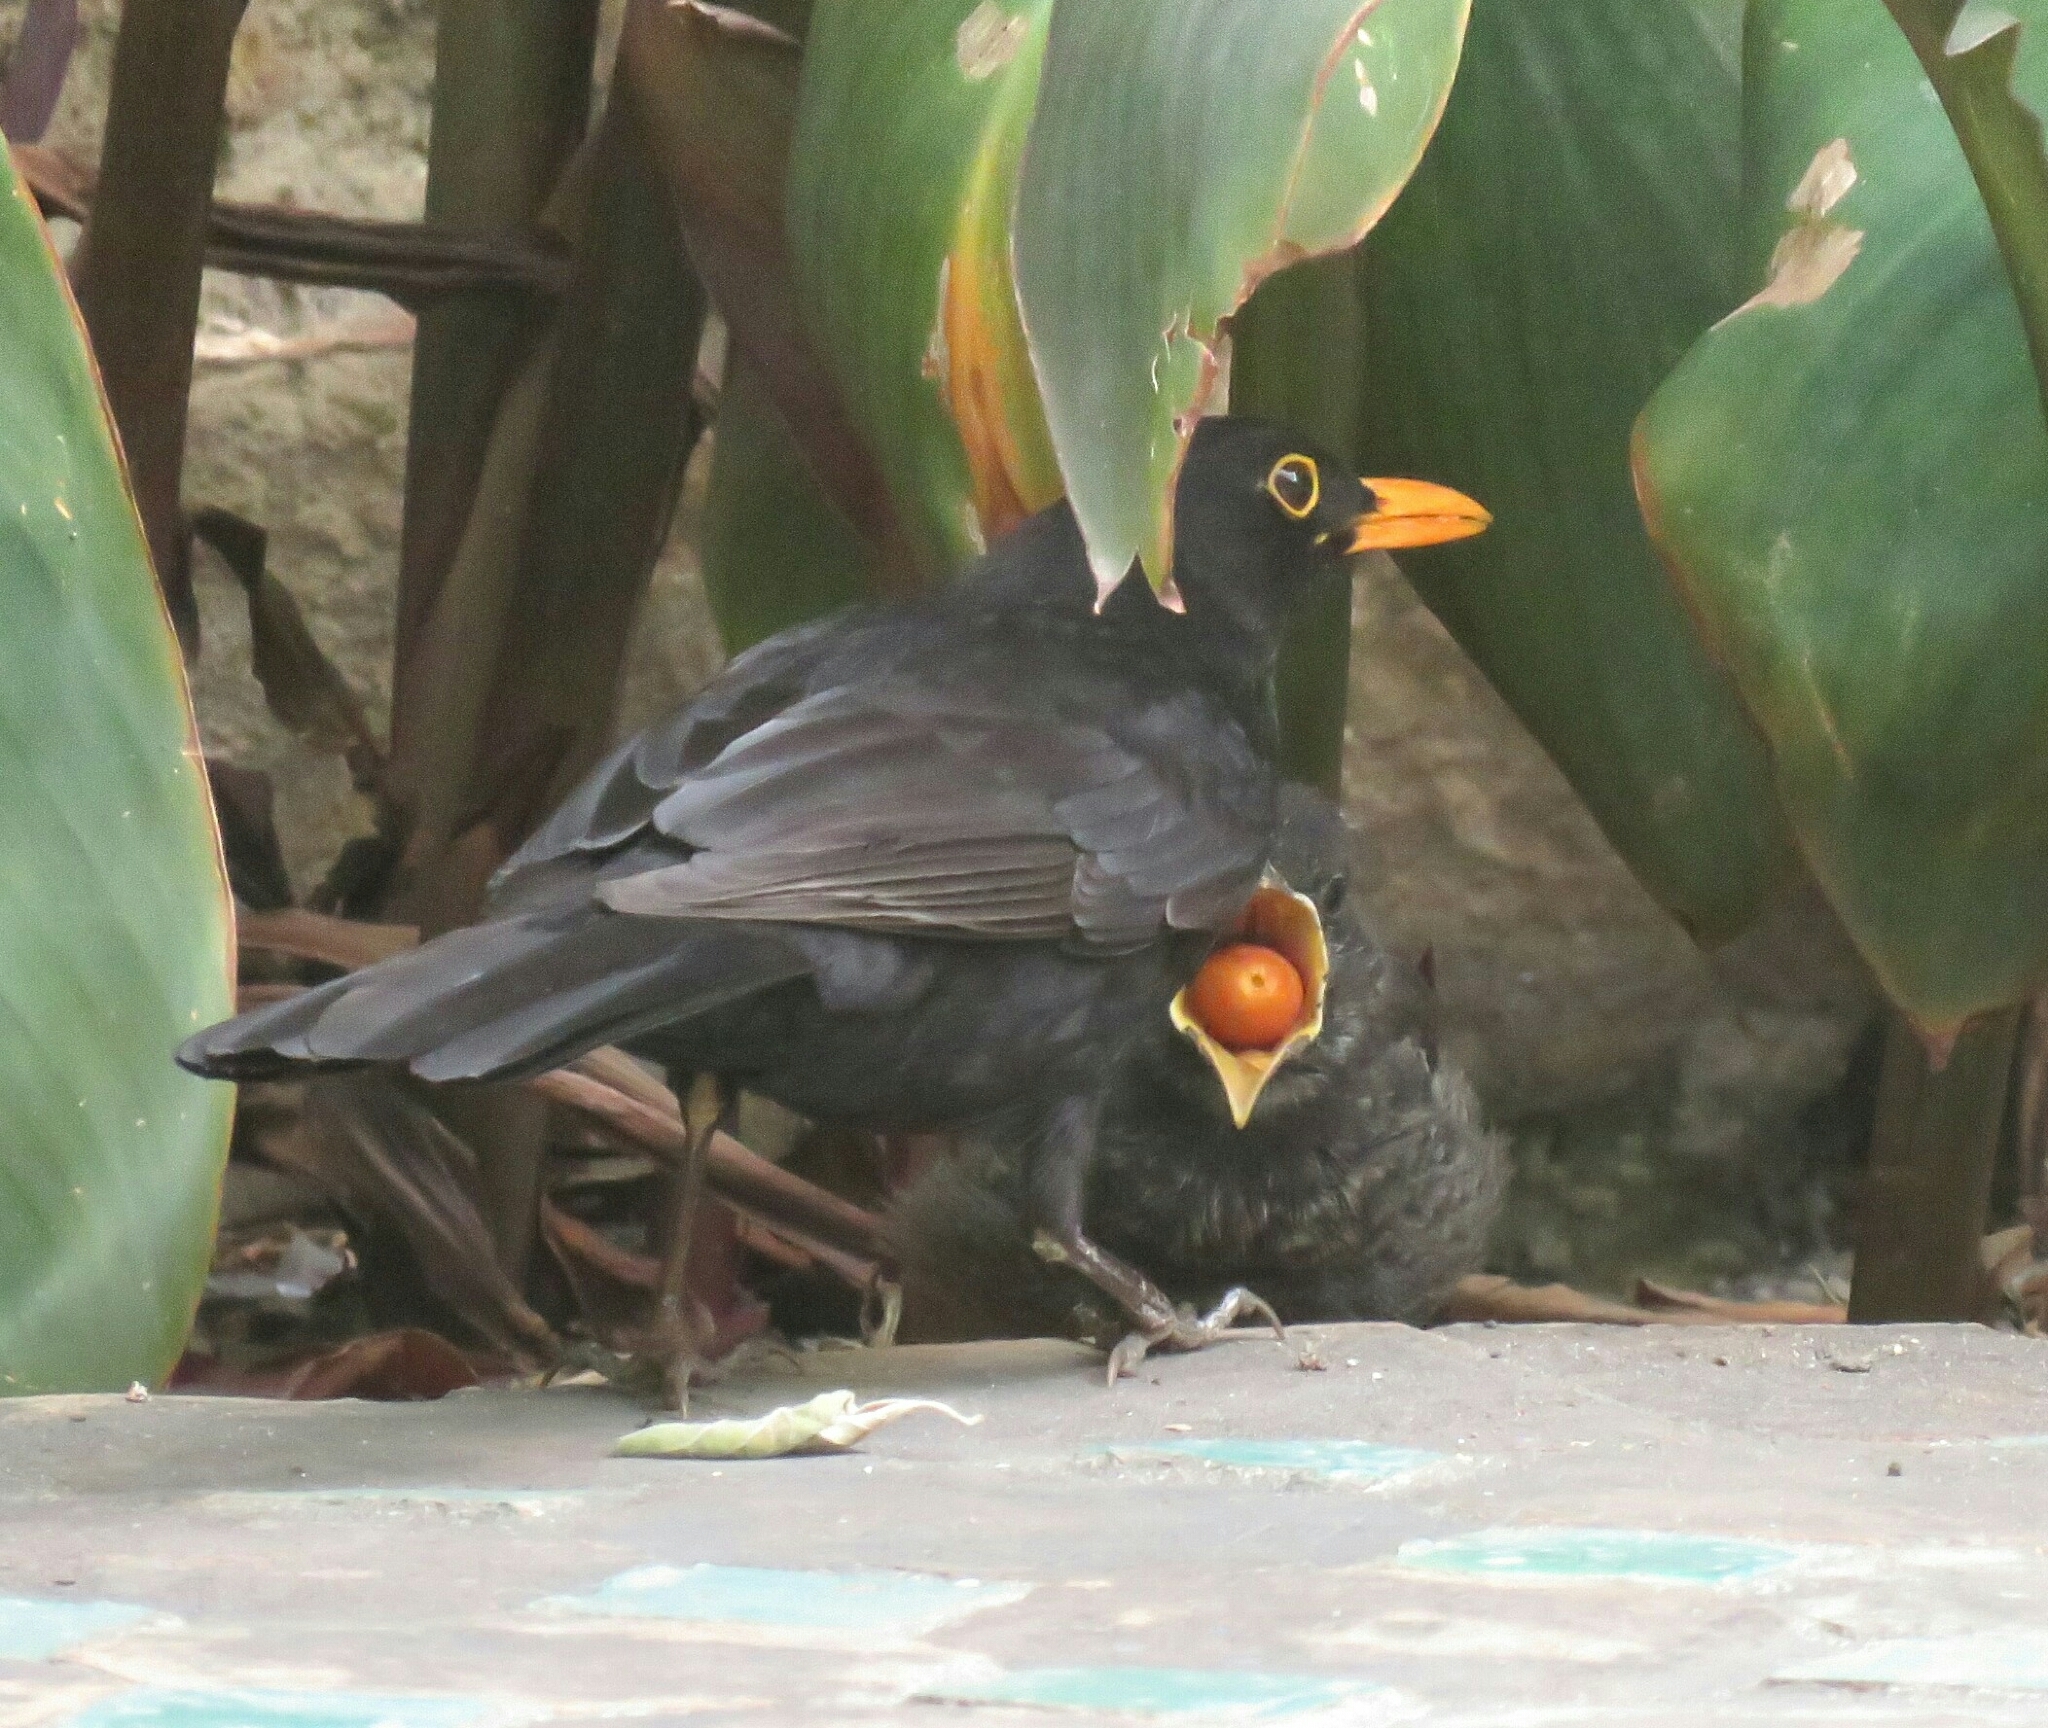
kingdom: Animalia
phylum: Chordata
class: Aves
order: Passeriformes
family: Turdidae
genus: Turdus
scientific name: Turdus merula
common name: Common blackbird
